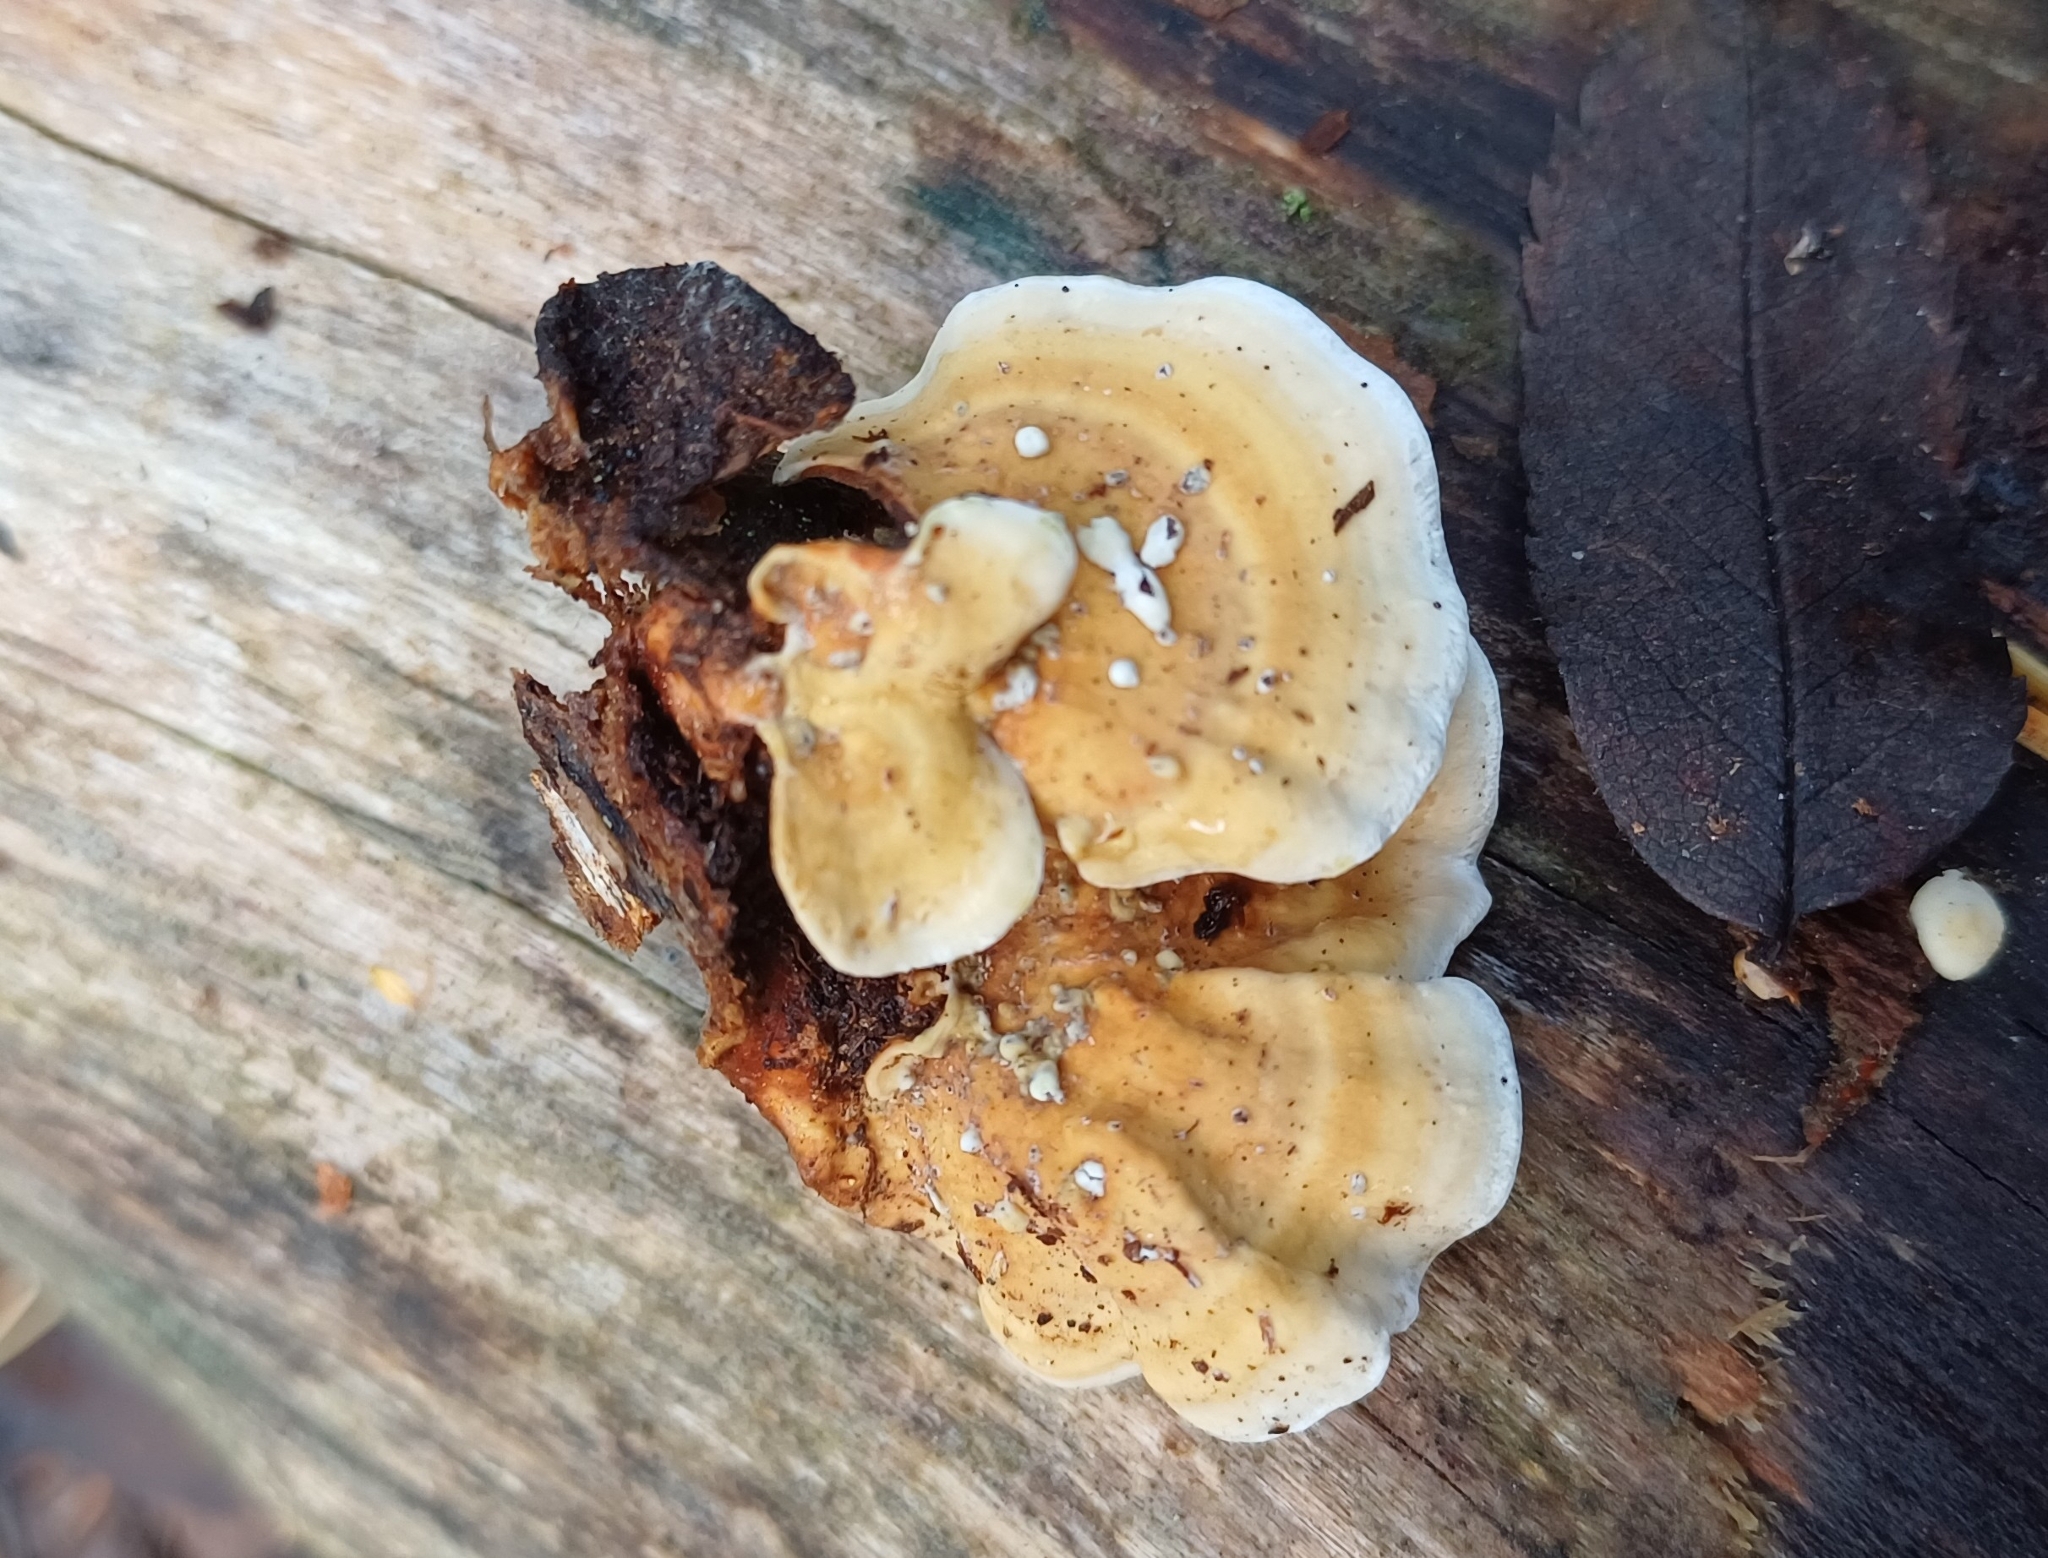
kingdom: Fungi
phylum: Basidiomycota
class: Agaricomycetes
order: Russulales
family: Stereaceae
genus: Stereum
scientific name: Stereum subtomentosum
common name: Yellowing curtain crust
